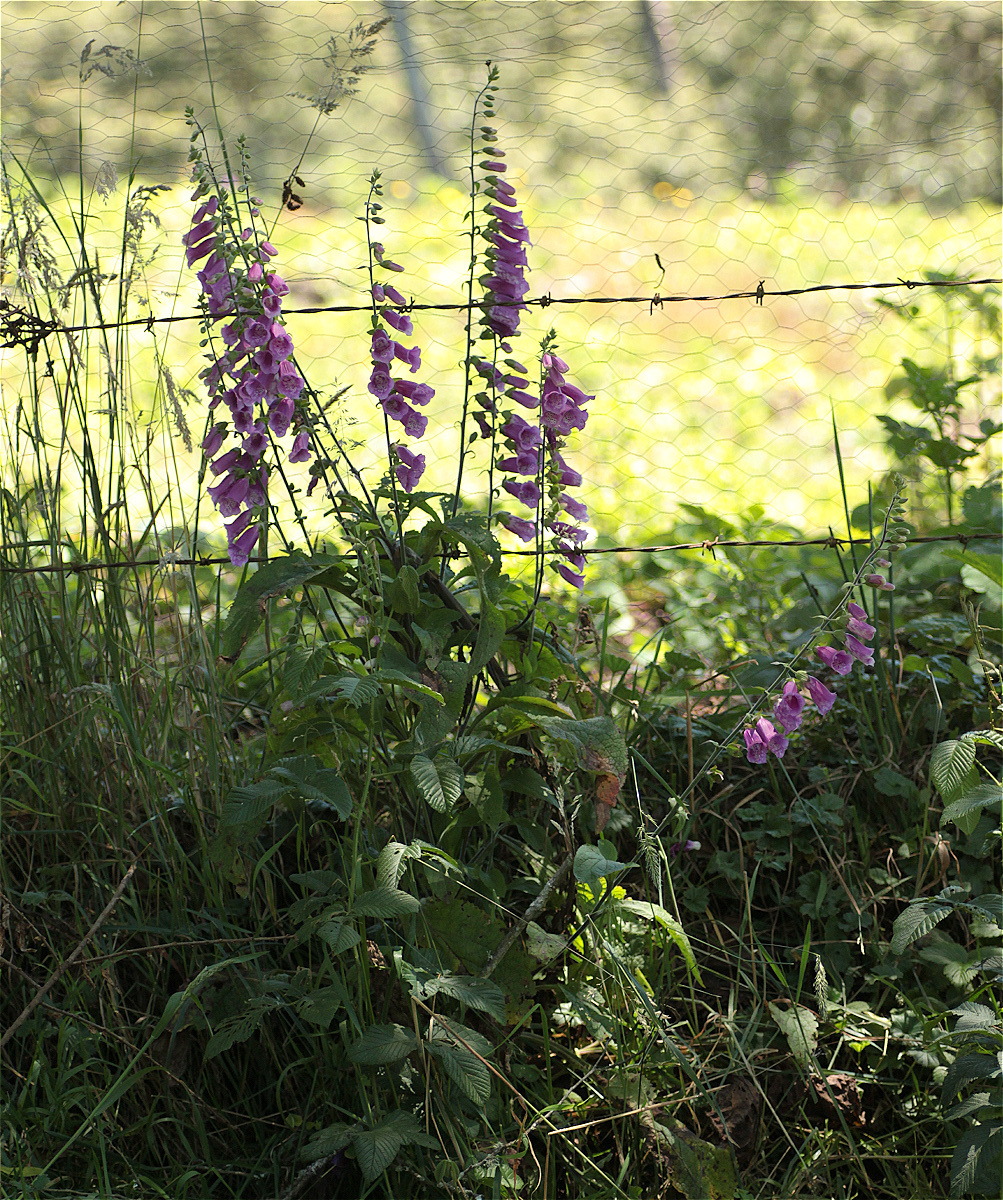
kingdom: Plantae
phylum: Tracheophyta
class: Magnoliopsida
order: Lamiales
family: Plantaginaceae
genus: Digitalis
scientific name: Digitalis purpurea
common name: Foxglove
